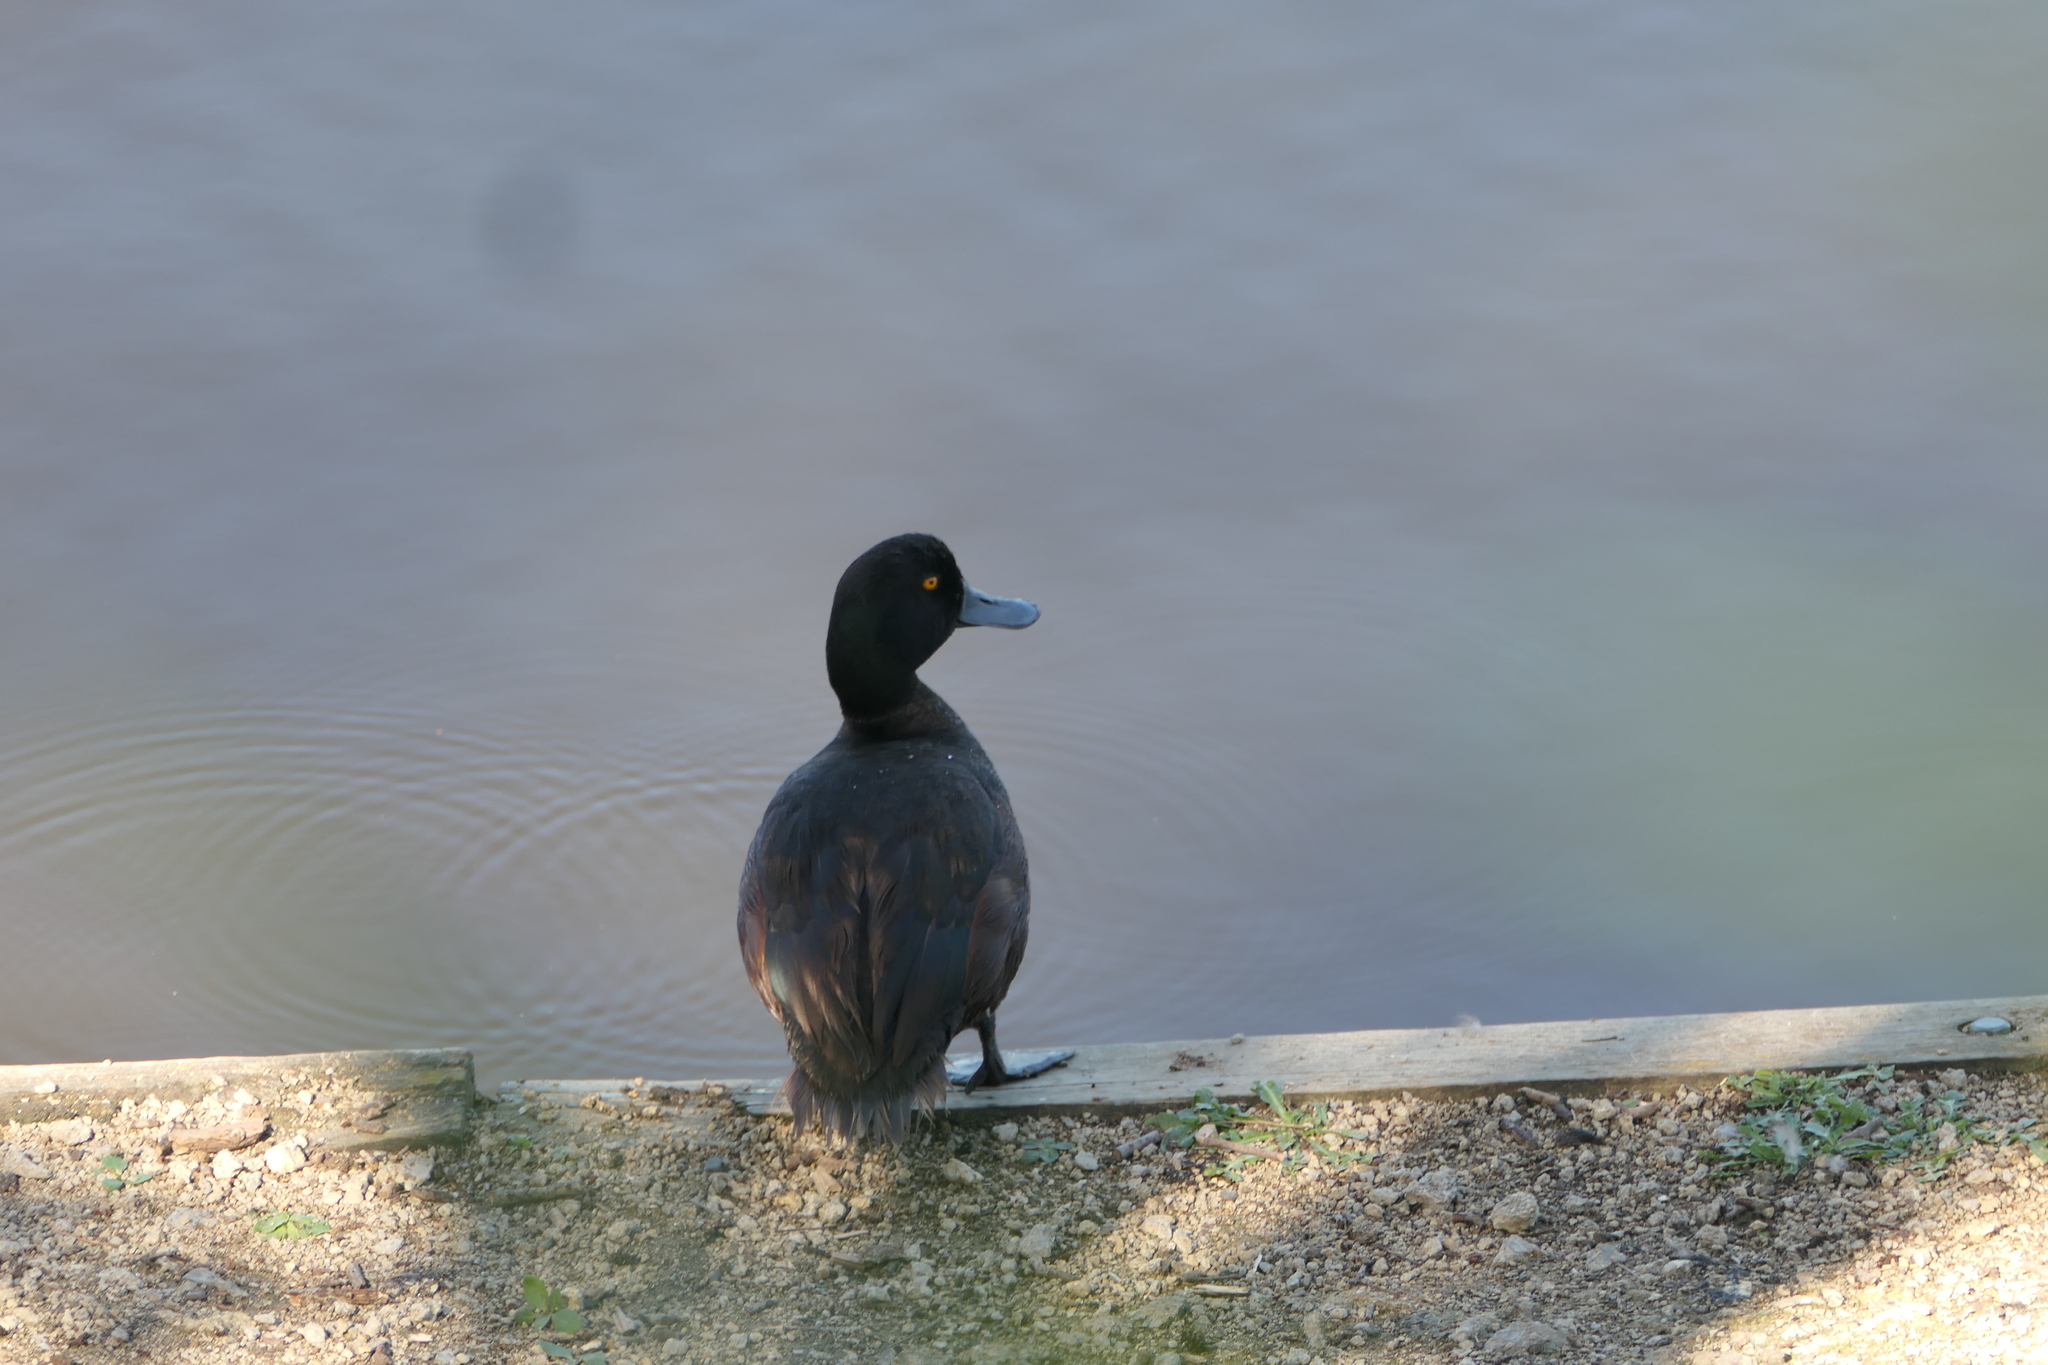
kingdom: Animalia
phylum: Chordata
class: Aves
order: Anseriformes
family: Anatidae
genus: Aythya
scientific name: Aythya novaeseelandiae
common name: New zealand scaup
